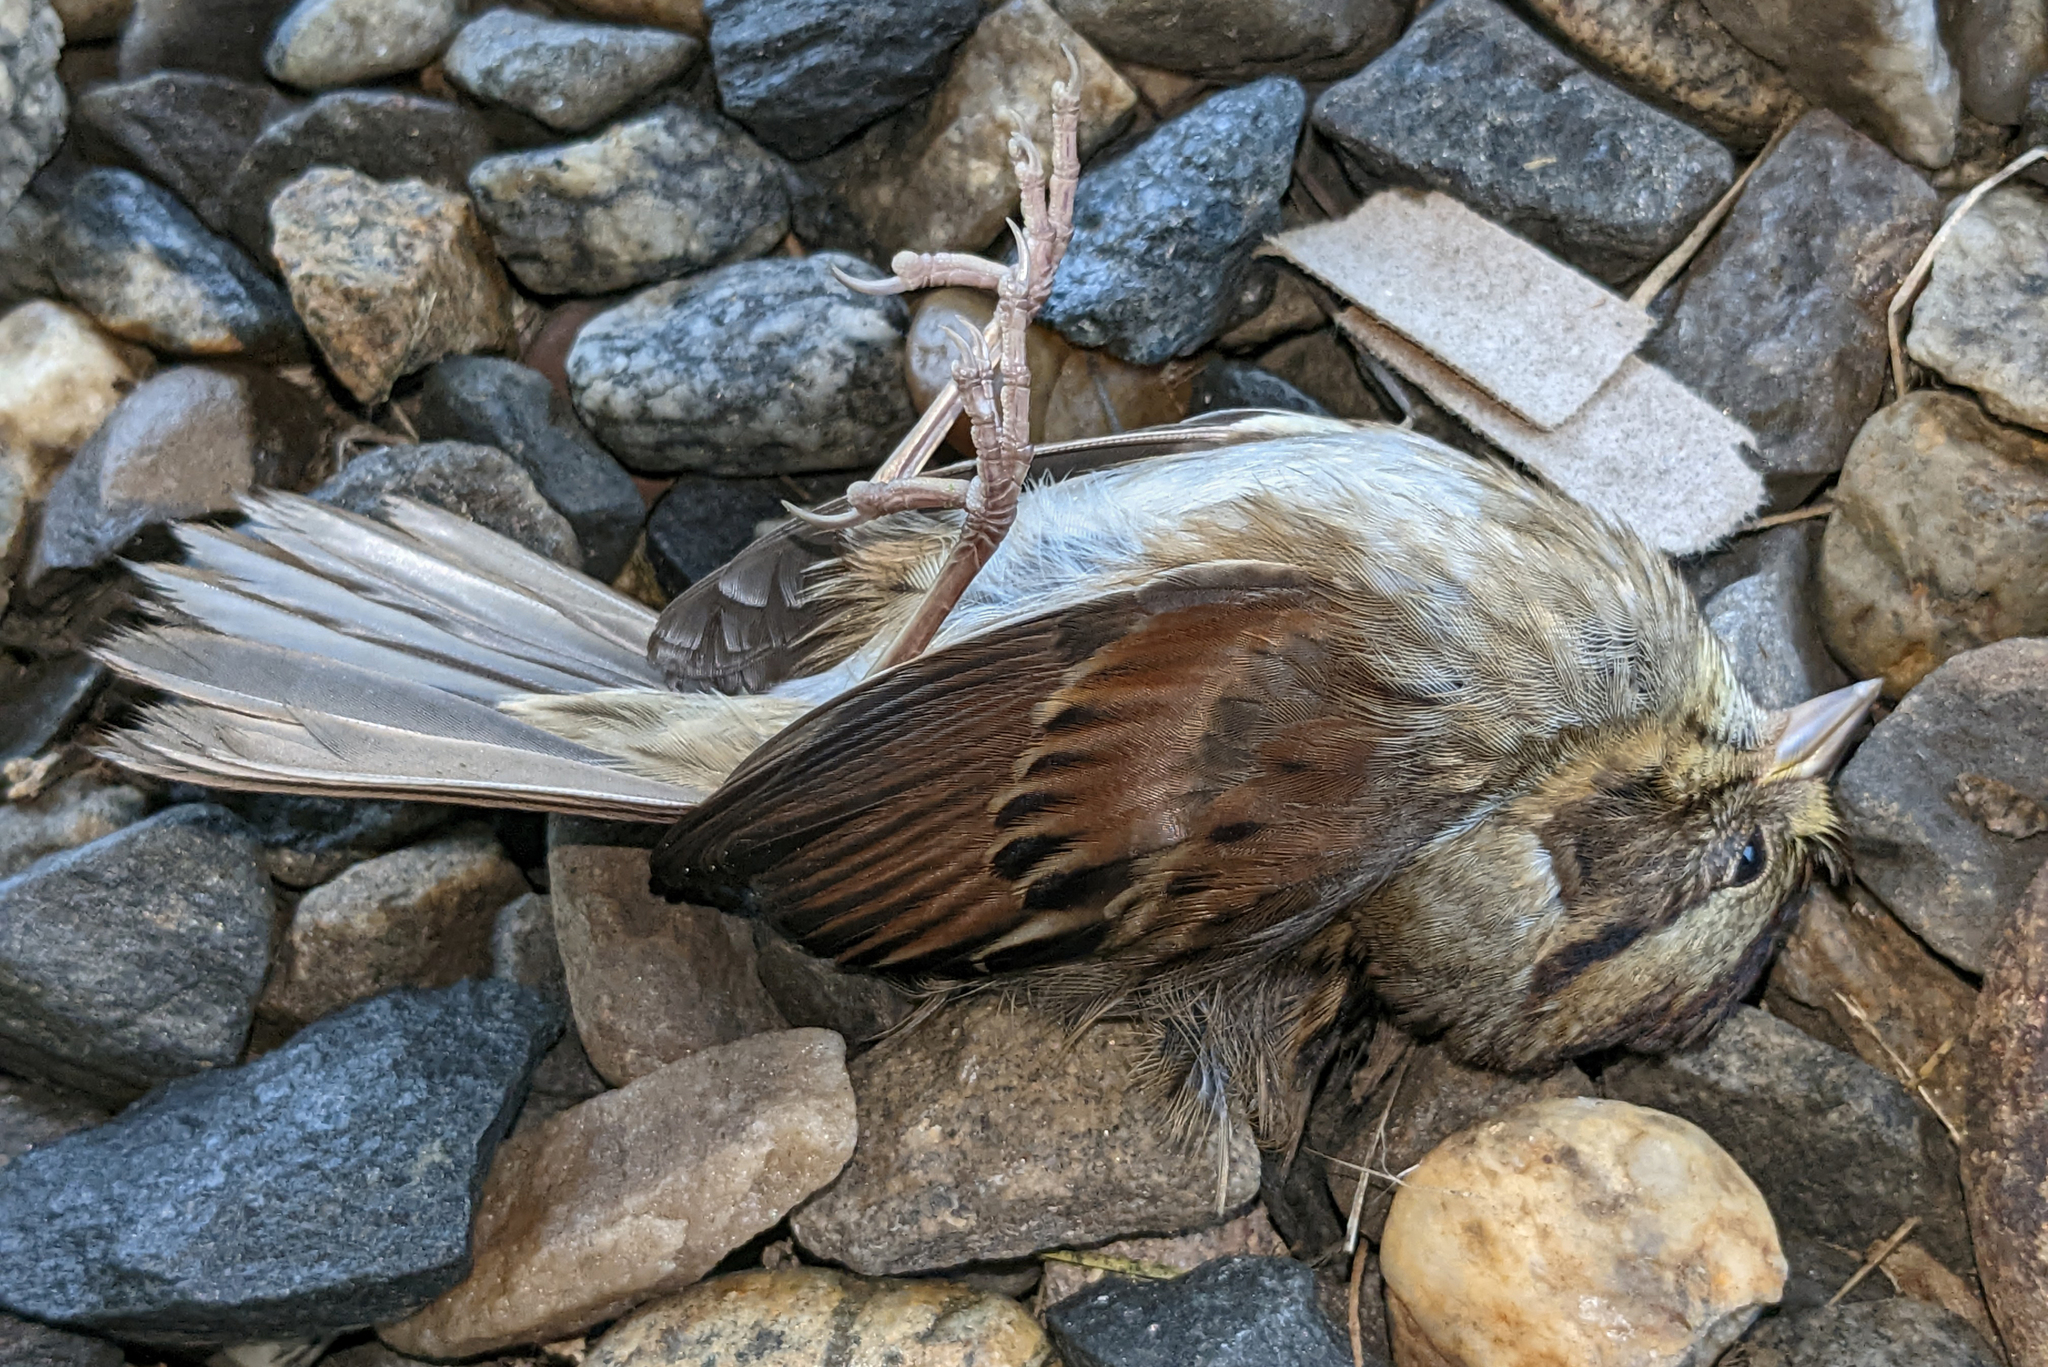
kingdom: Animalia
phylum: Chordata
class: Aves
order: Passeriformes
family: Passerellidae
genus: Melospiza
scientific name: Melospiza georgiana
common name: Swamp sparrow
